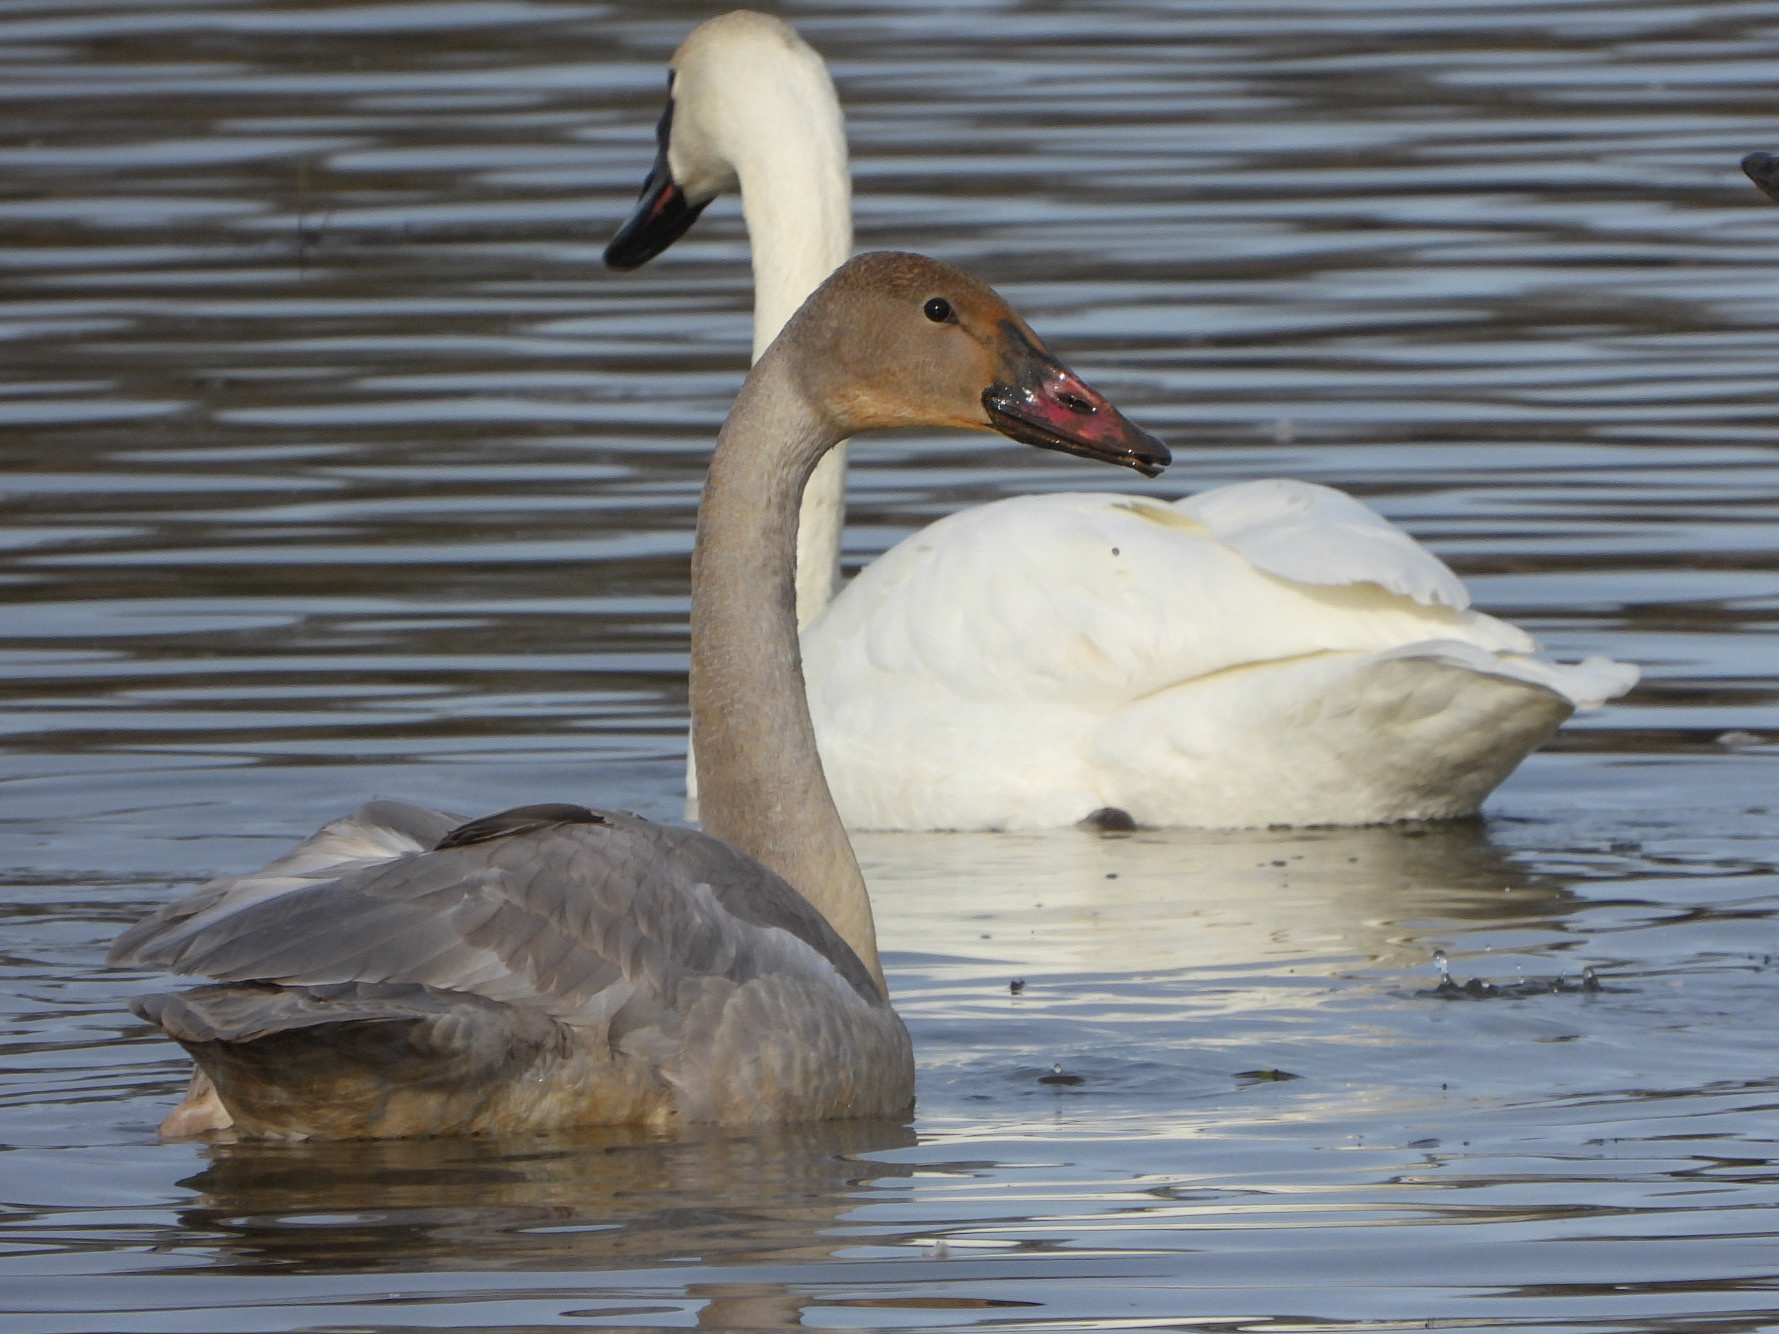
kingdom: Animalia
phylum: Chordata
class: Aves
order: Anseriformes
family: Anatidae
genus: Cygnus
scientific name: Cygnus buccinator
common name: Trumpeter swan
